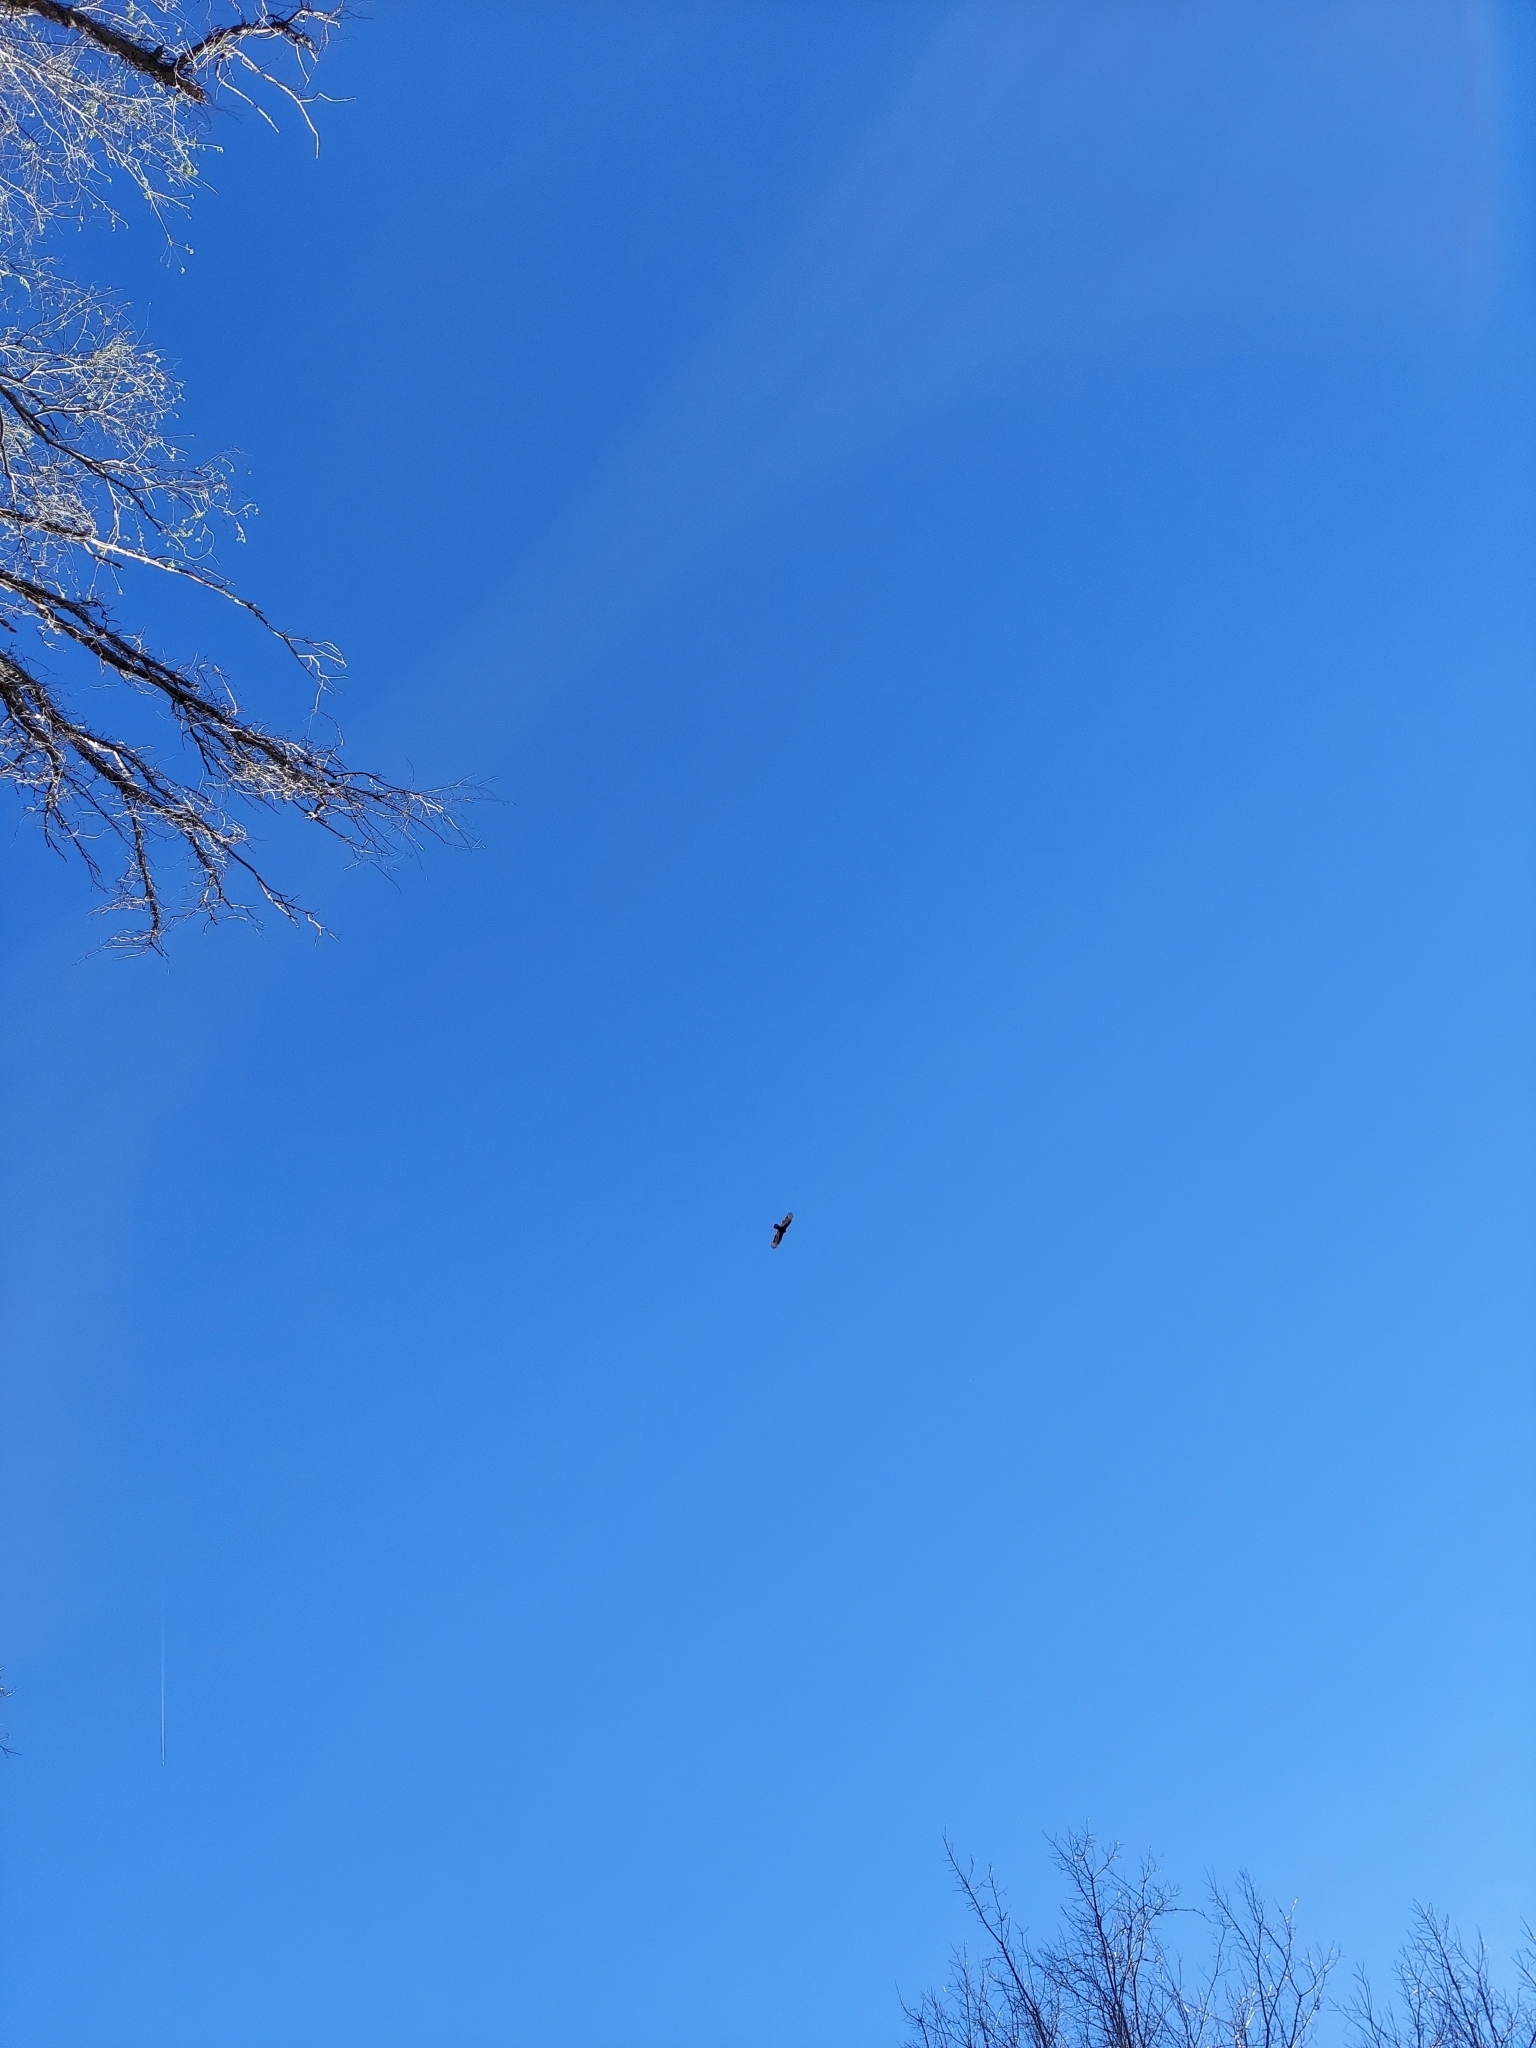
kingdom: Animalia
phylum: Chordata
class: Aves
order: Accipitriformes
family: Cathartidae
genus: Cathartes
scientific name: Cathartes aura
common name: Turkey vulture
